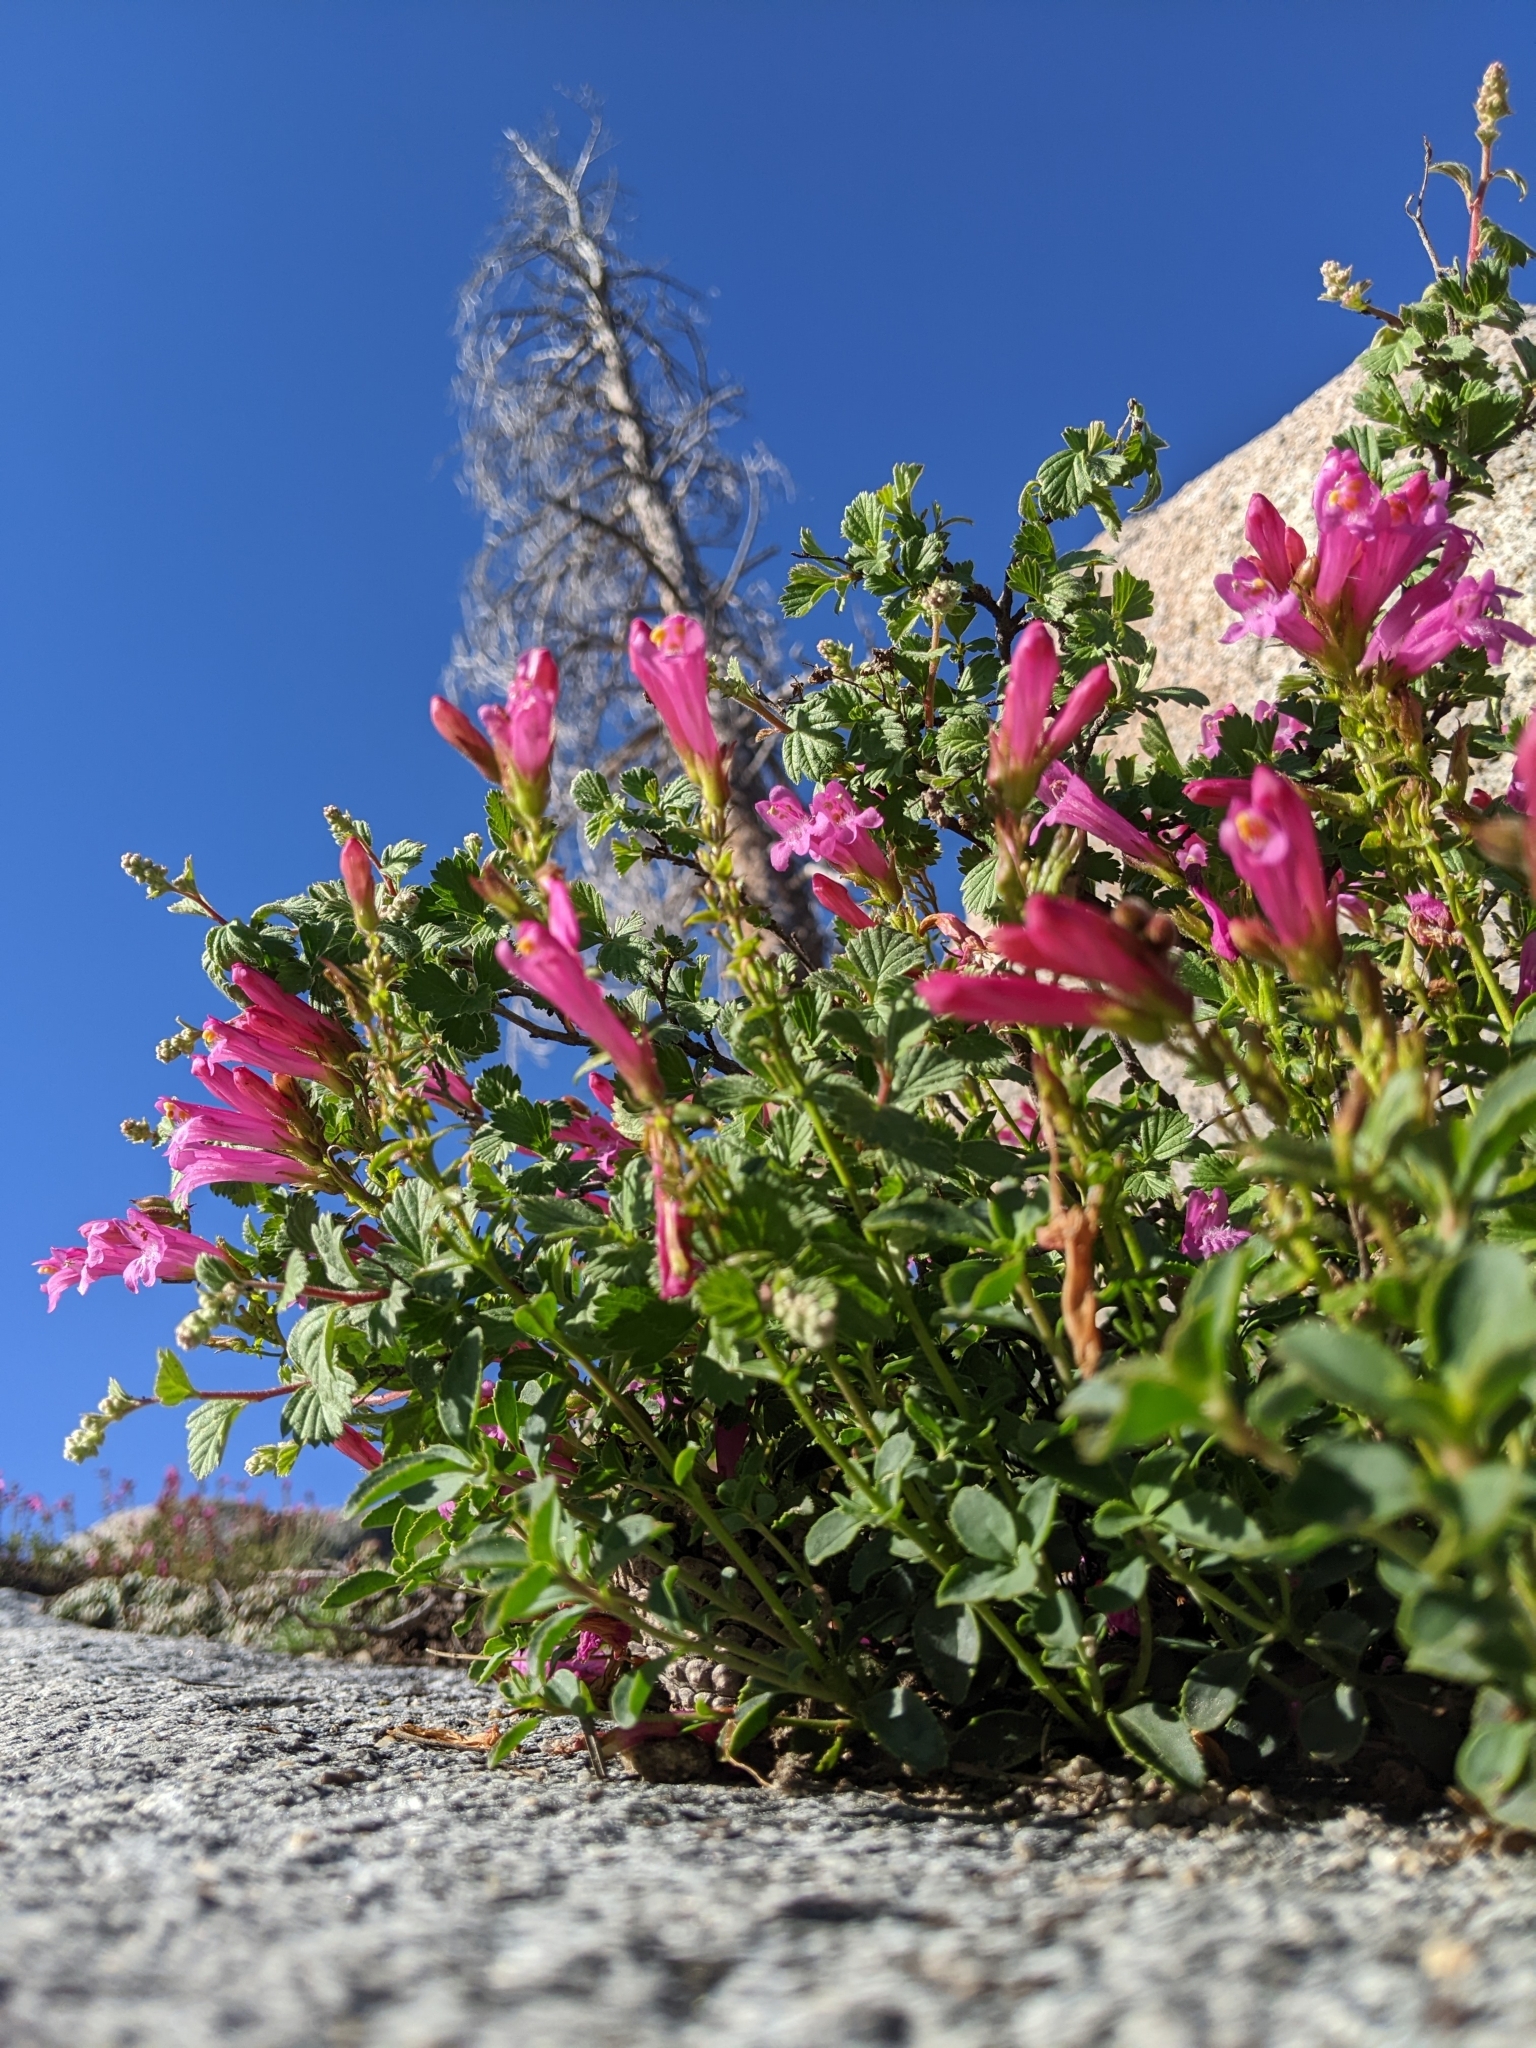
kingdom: Plantae
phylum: Tracheophyta
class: Magnoliopsida
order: Lamiales
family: Plantaginaceae
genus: Penstemon
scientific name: Penstemon newberryi
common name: Mountain-pride
